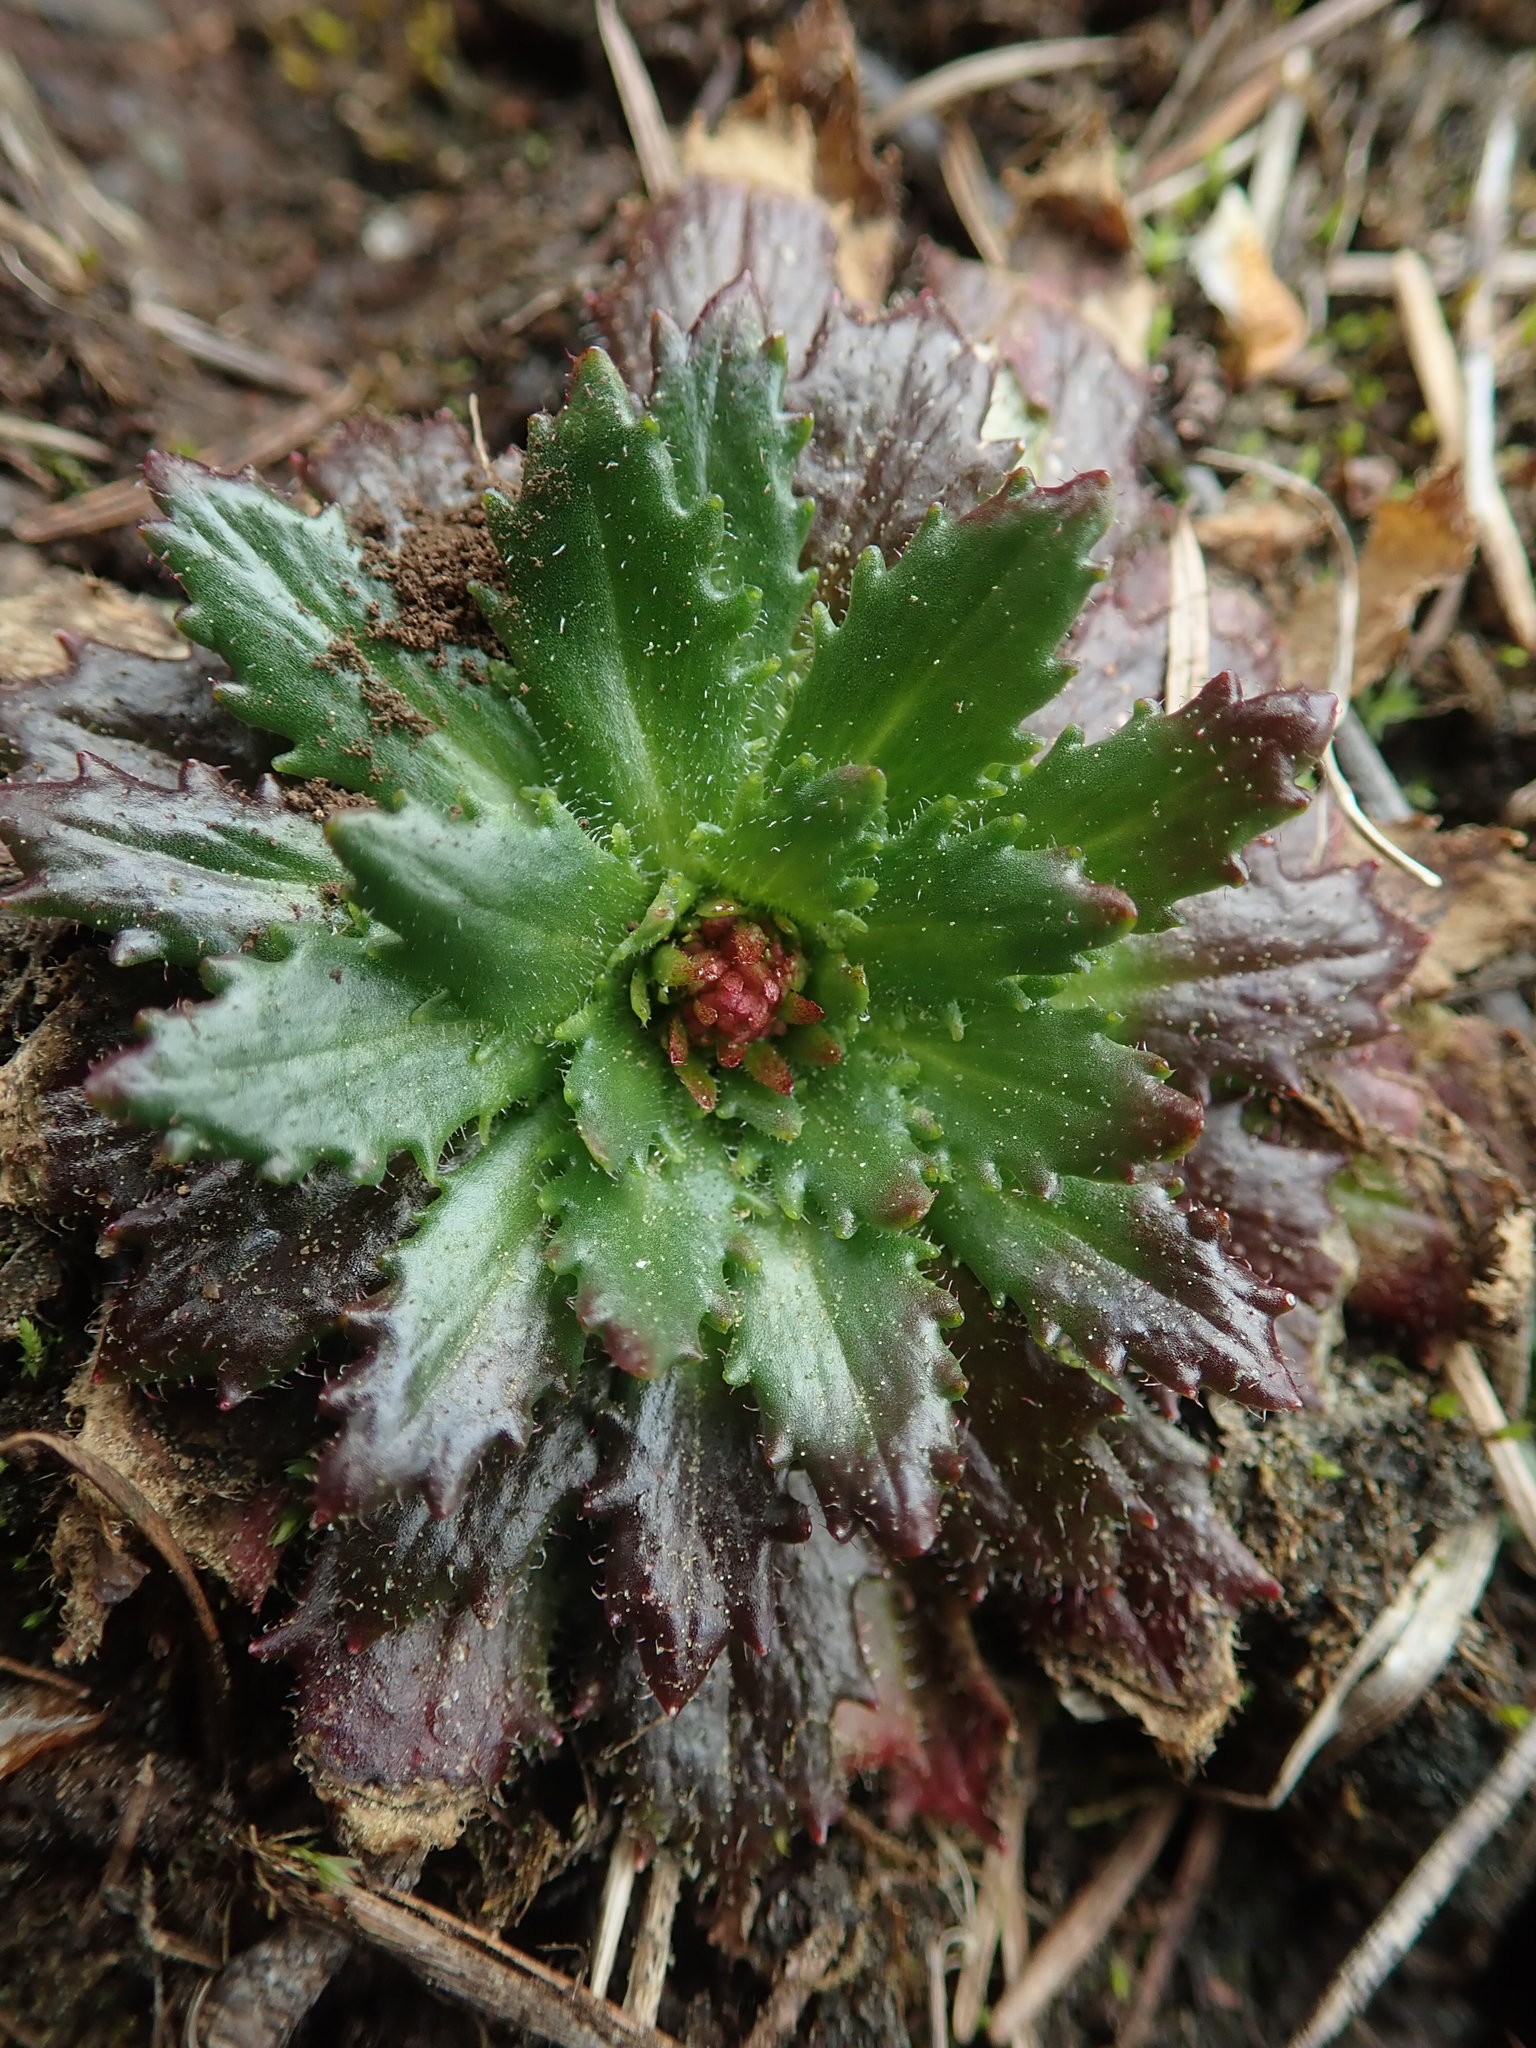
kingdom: Plantae
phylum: Tracheophyta
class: Magnoliopsida
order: Saxifragales
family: Saxifragaceae
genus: Micranthes
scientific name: Micranthes ferruginea
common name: Rusty saxifrage
